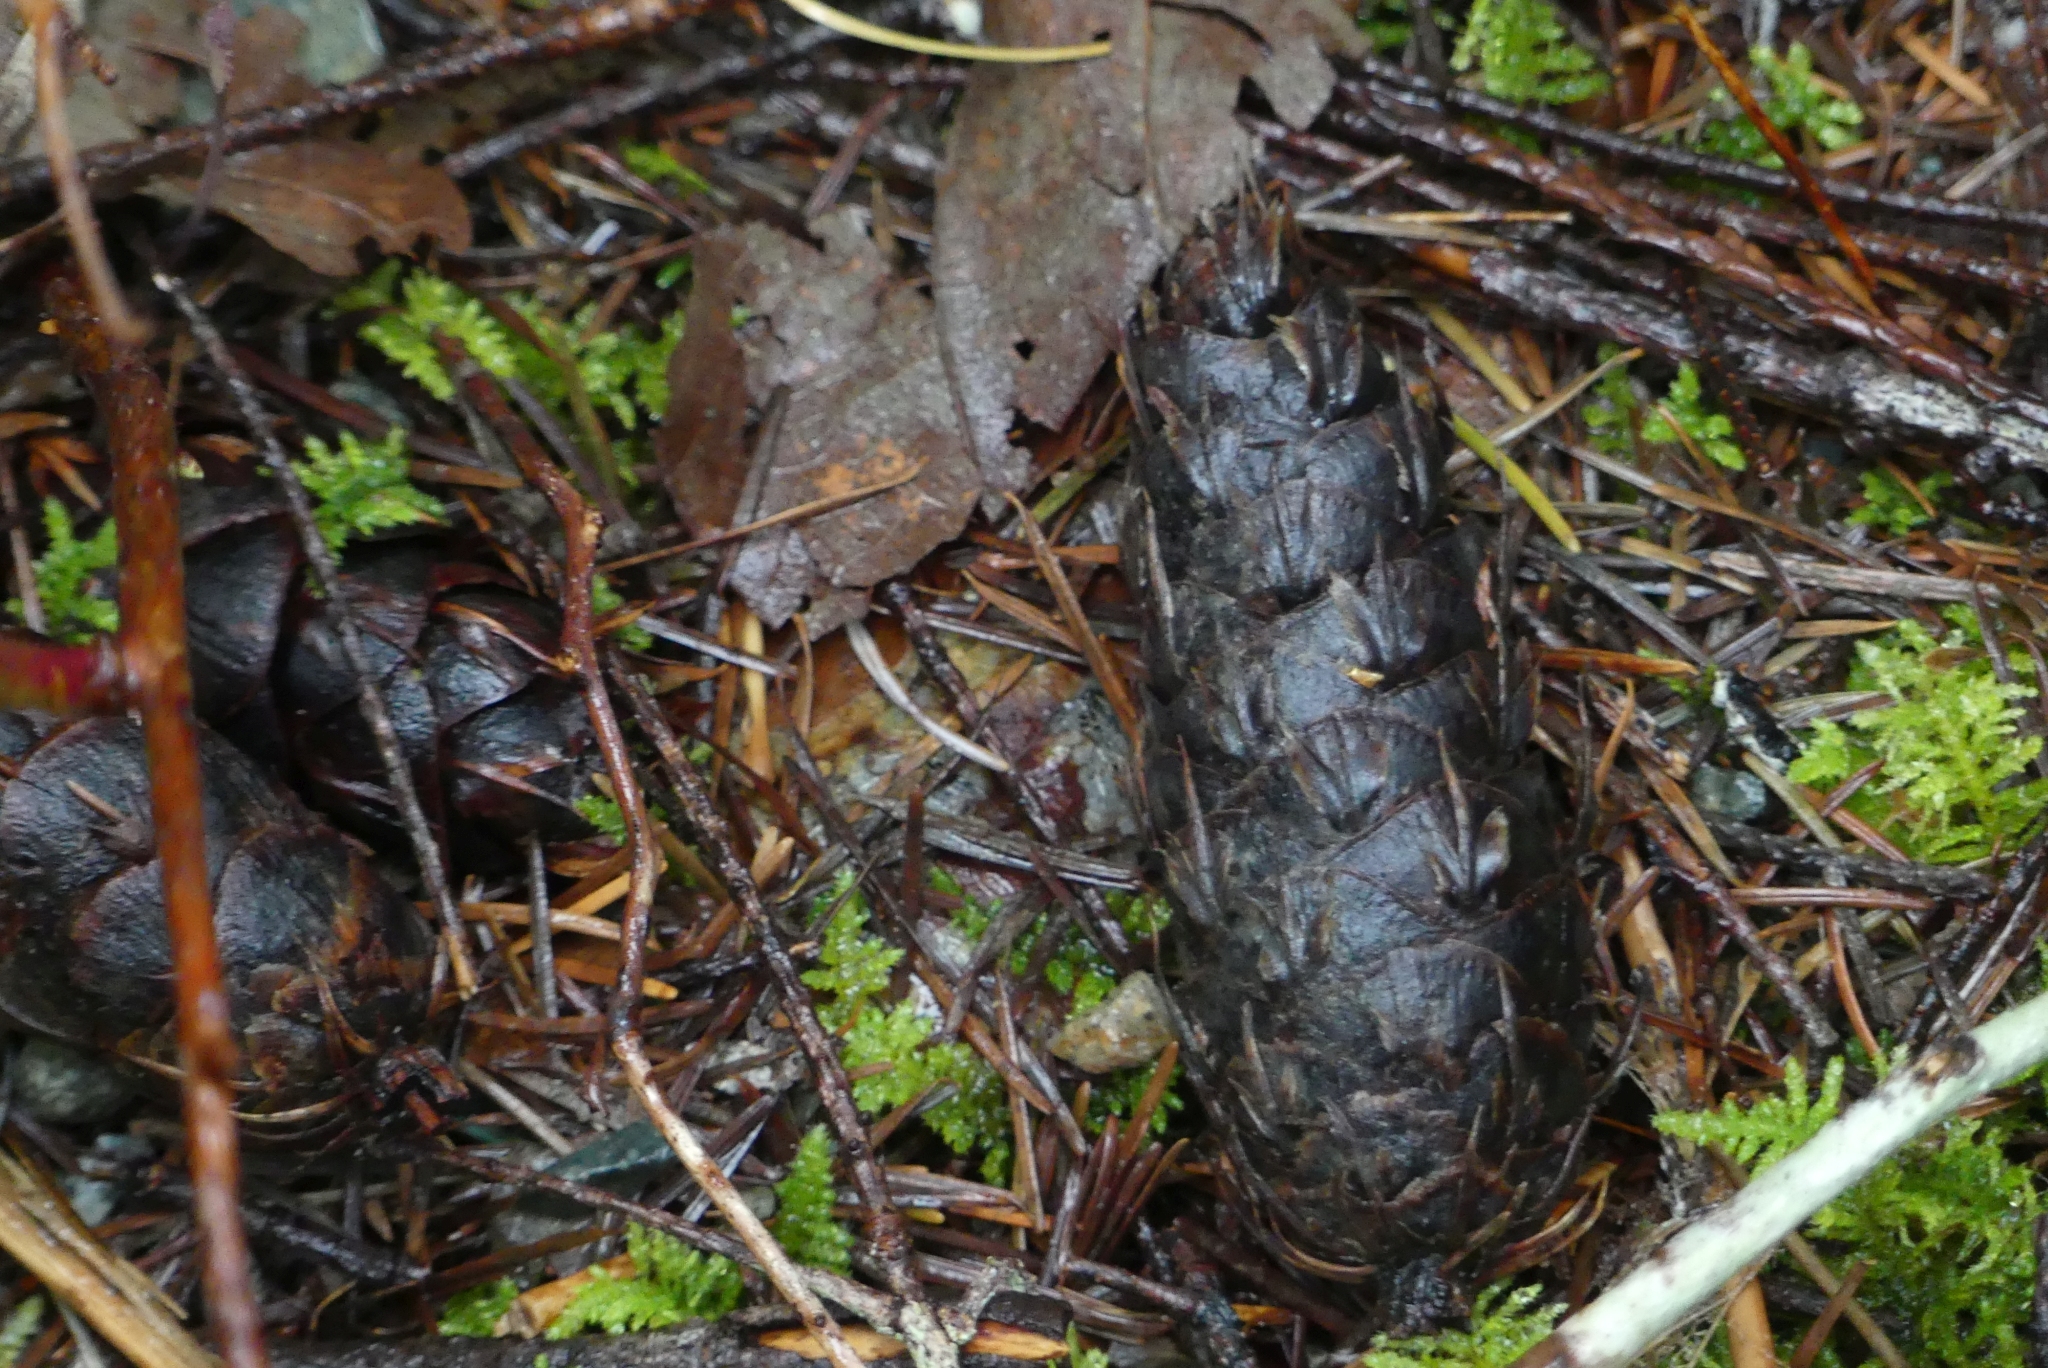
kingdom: Plantae
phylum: Tracheophyta
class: Pinopsida
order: Pinales
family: Pinaceae
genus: Pseudotsuga
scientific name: Pseudotsuga menziesii
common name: Douglas fir
